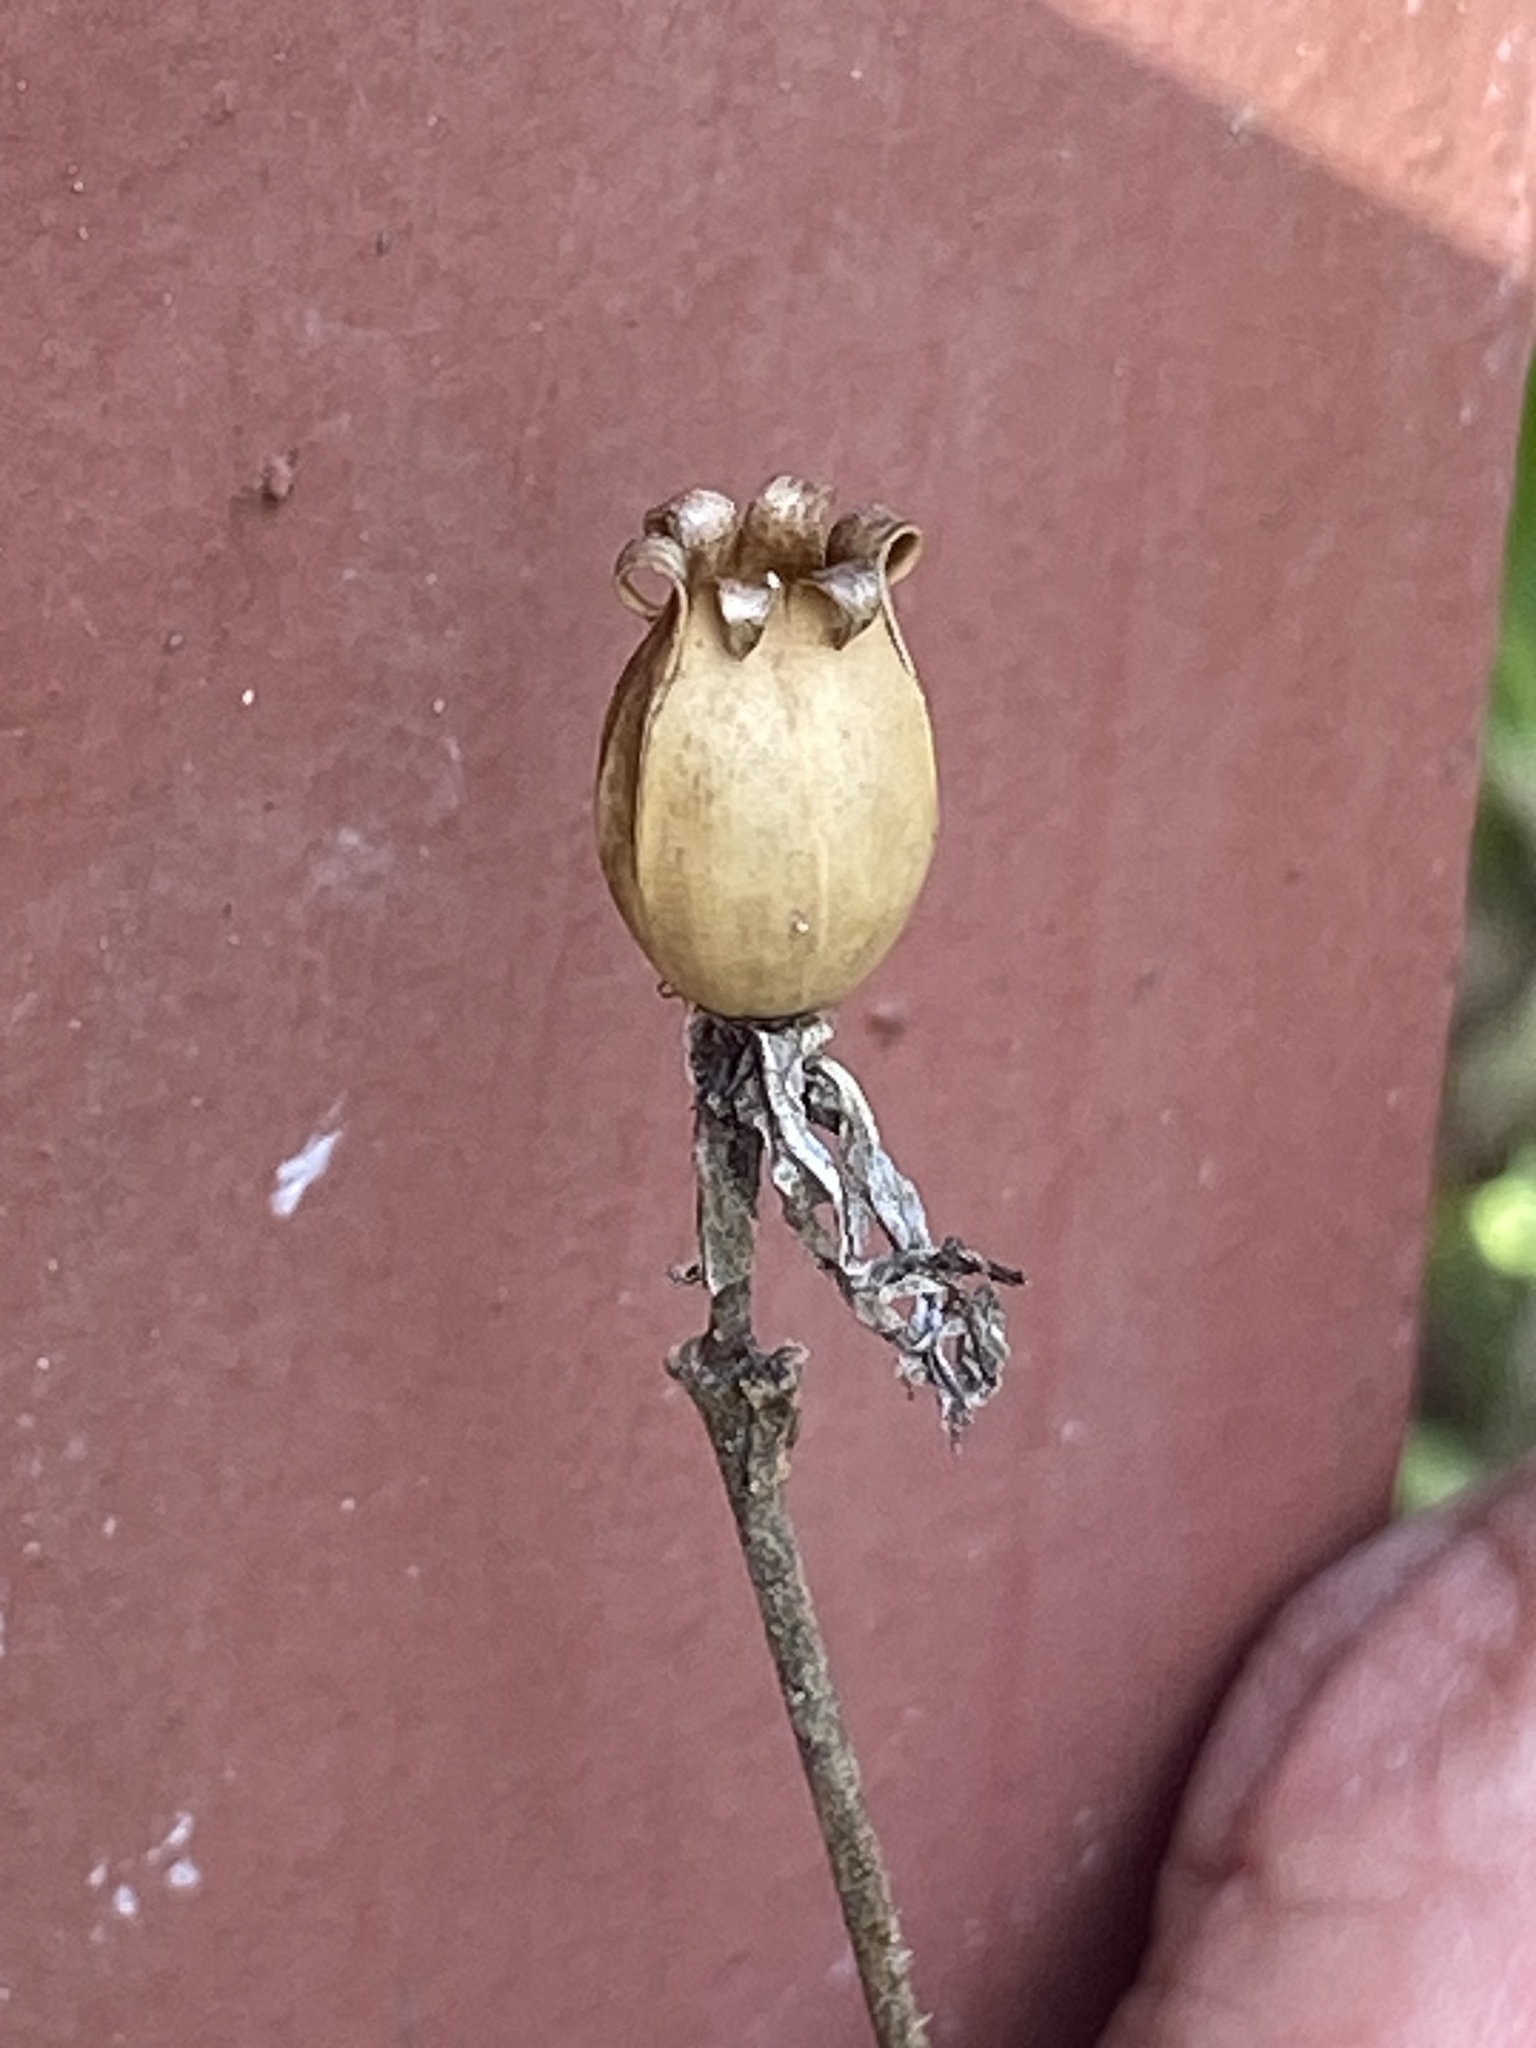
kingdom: Plantae
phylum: Tracheophyta
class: Magnoliopsida
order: Caryophyllales
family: Caryophyllaceae
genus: Silene
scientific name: Silene latifolia
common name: White campion
